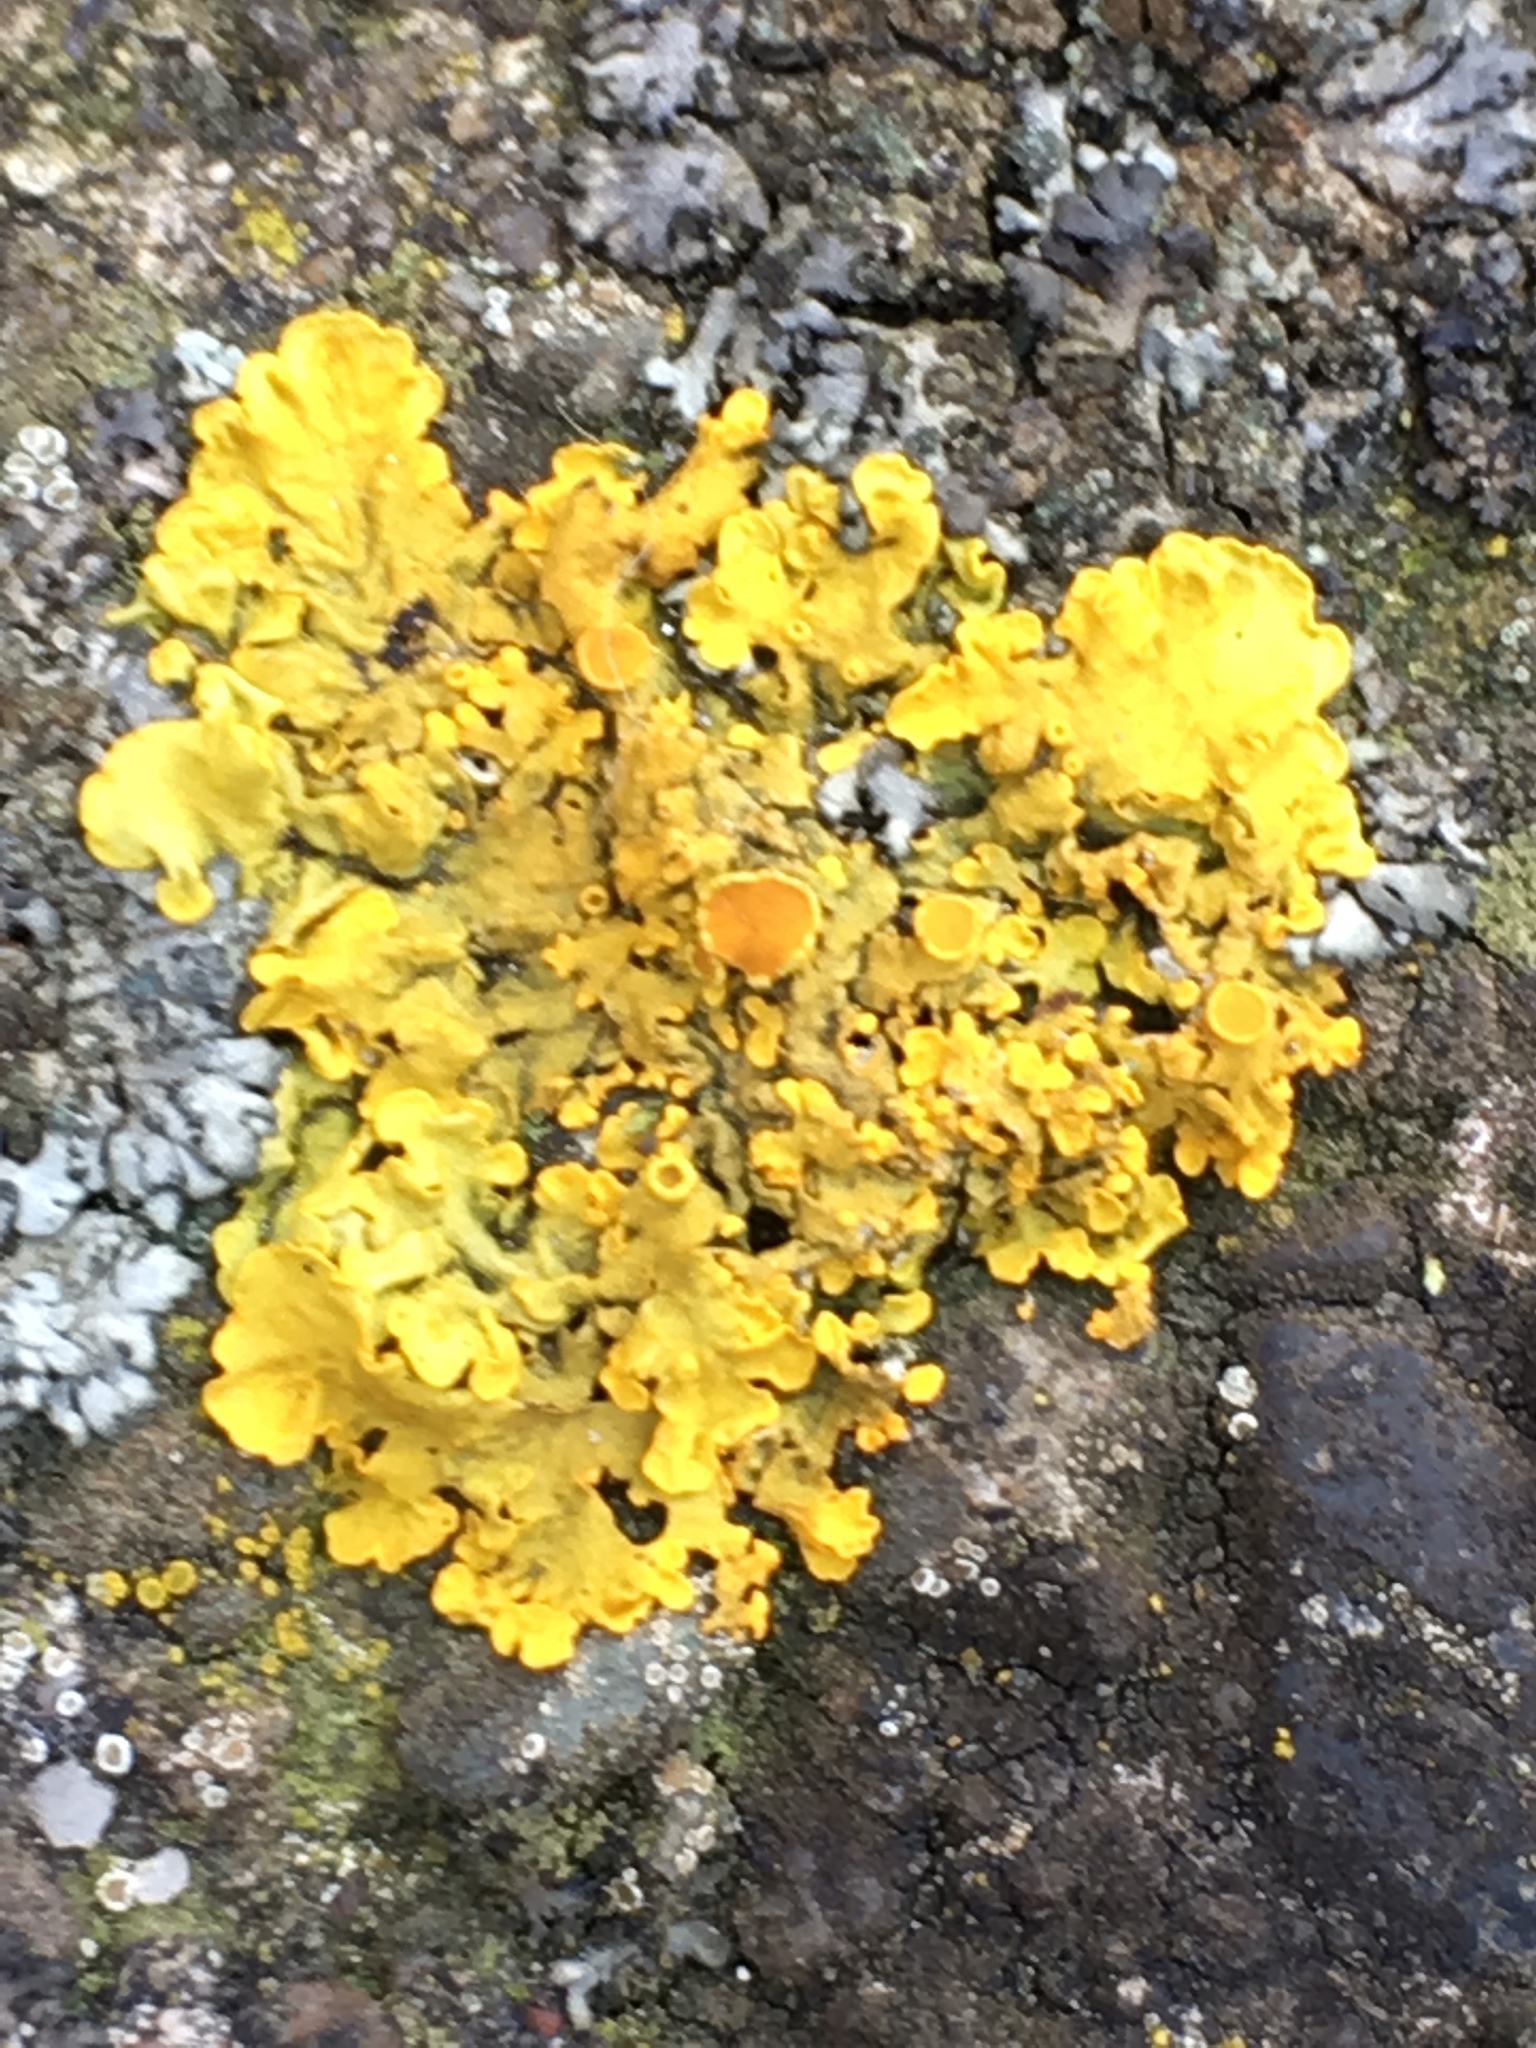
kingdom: Fungi
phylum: Ascomycota
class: Lecanoromycetes
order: Teloschistales
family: Teloschistaceae
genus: Xanthoria
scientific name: Xanthoria parietina
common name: Common orange lichen
